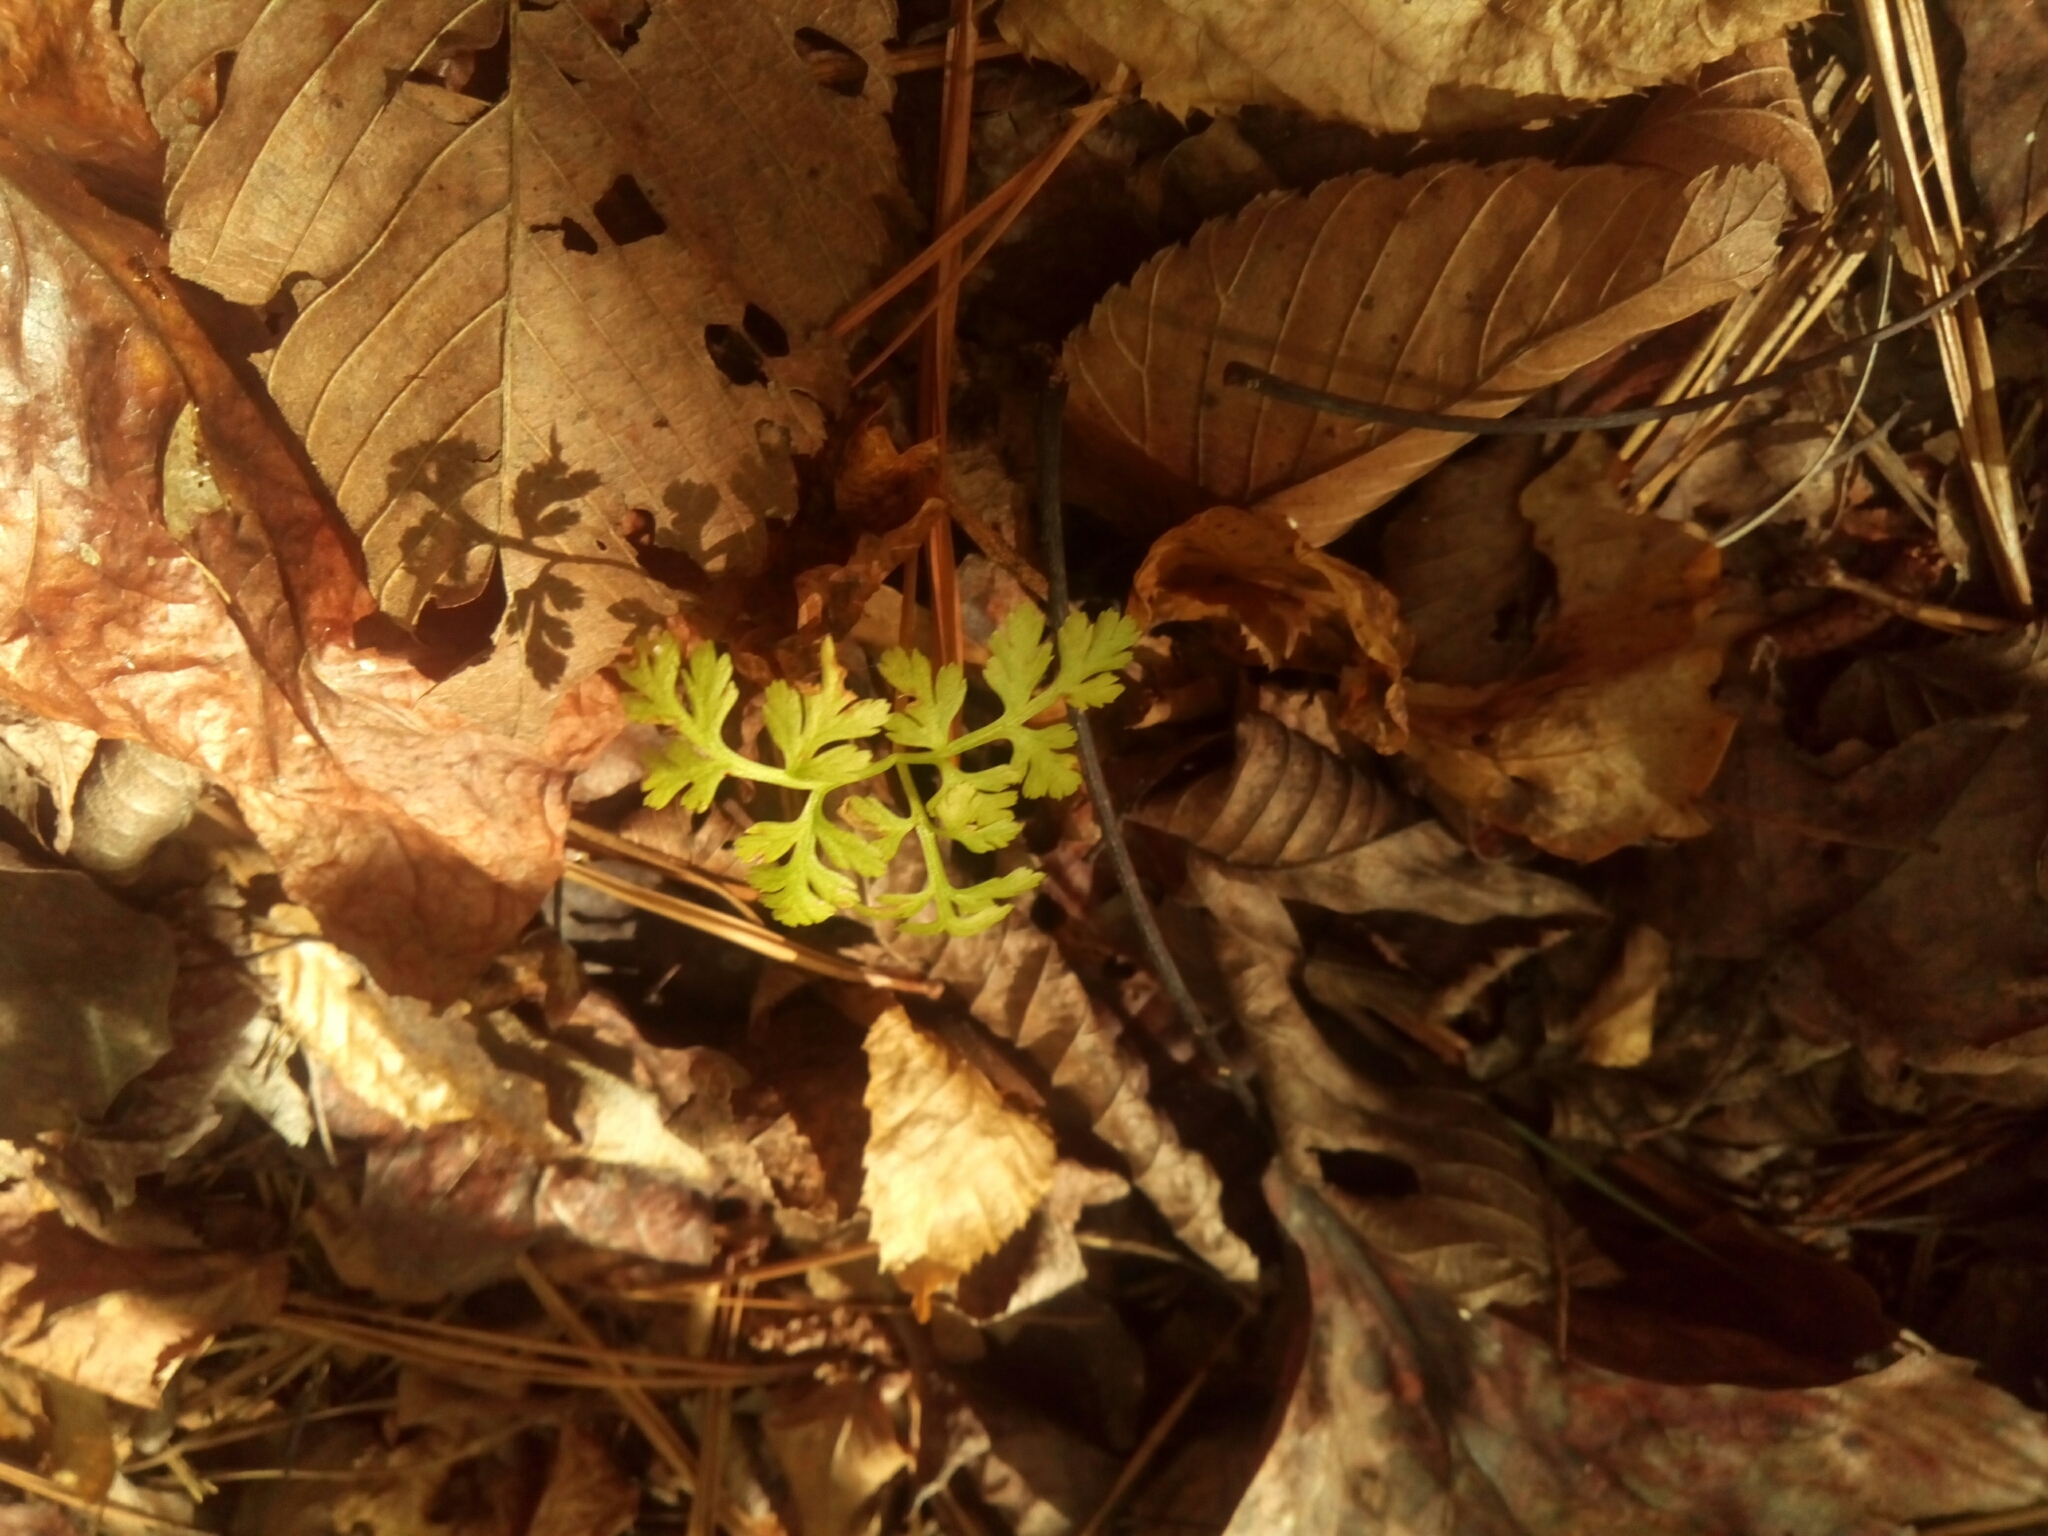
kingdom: Plantae
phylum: Tracheophyta
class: Polypodiopsida
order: Ophioglossales
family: Ophioglossaceae
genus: Botrypus
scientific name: Botrypus virginianus
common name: Common grapefern
